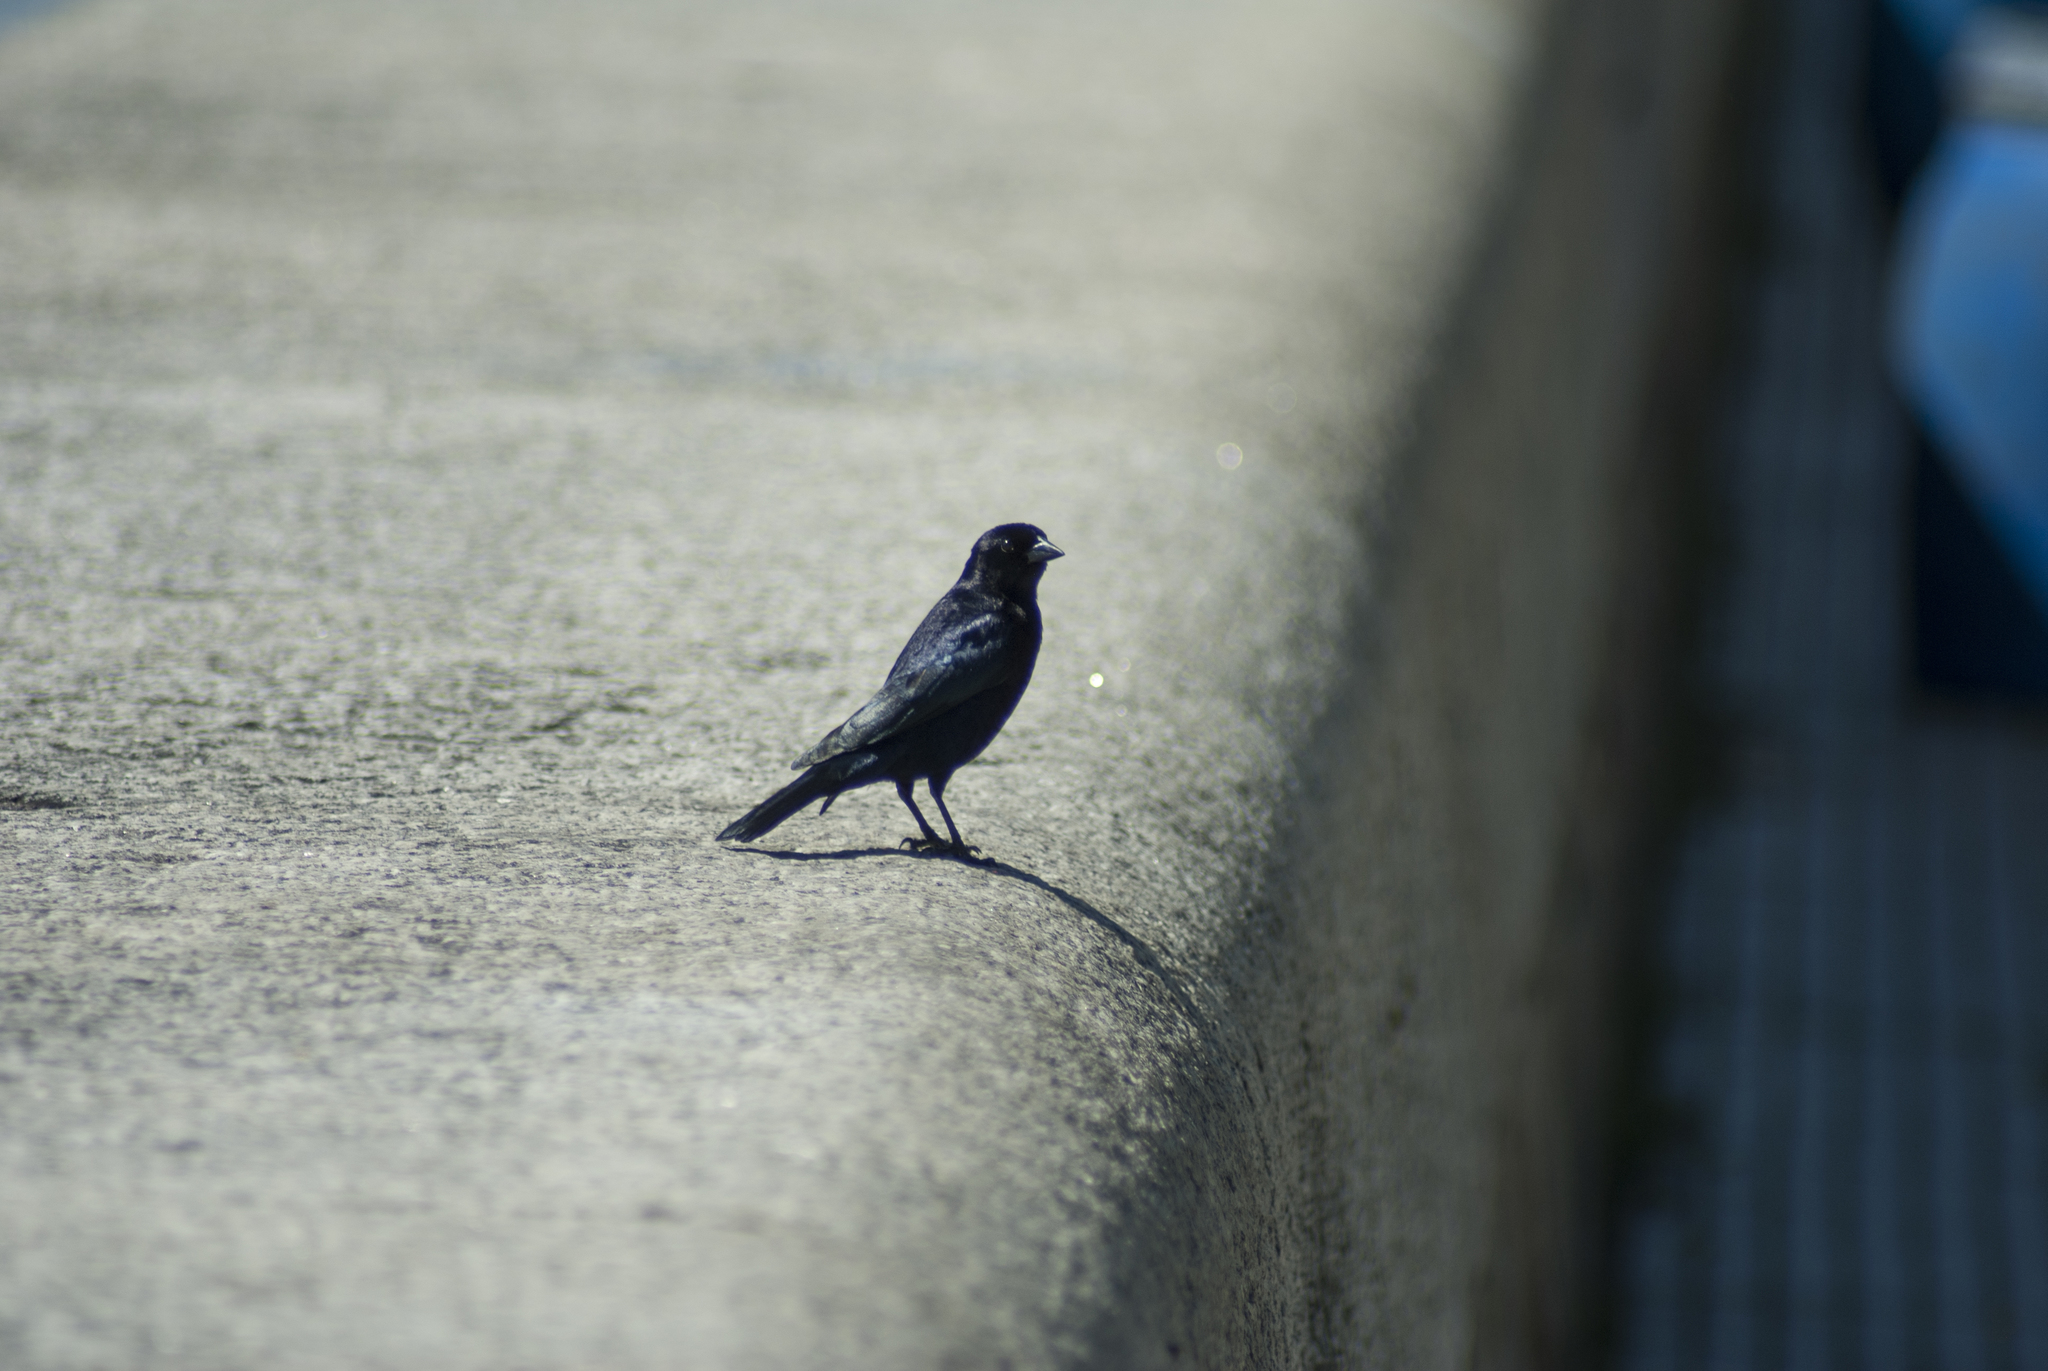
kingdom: Animalia
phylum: Chordata
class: Aves
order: Passeriformes
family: Icteridae
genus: Molothrus
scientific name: Molothrus bonariensis
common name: Shiny cowbird
